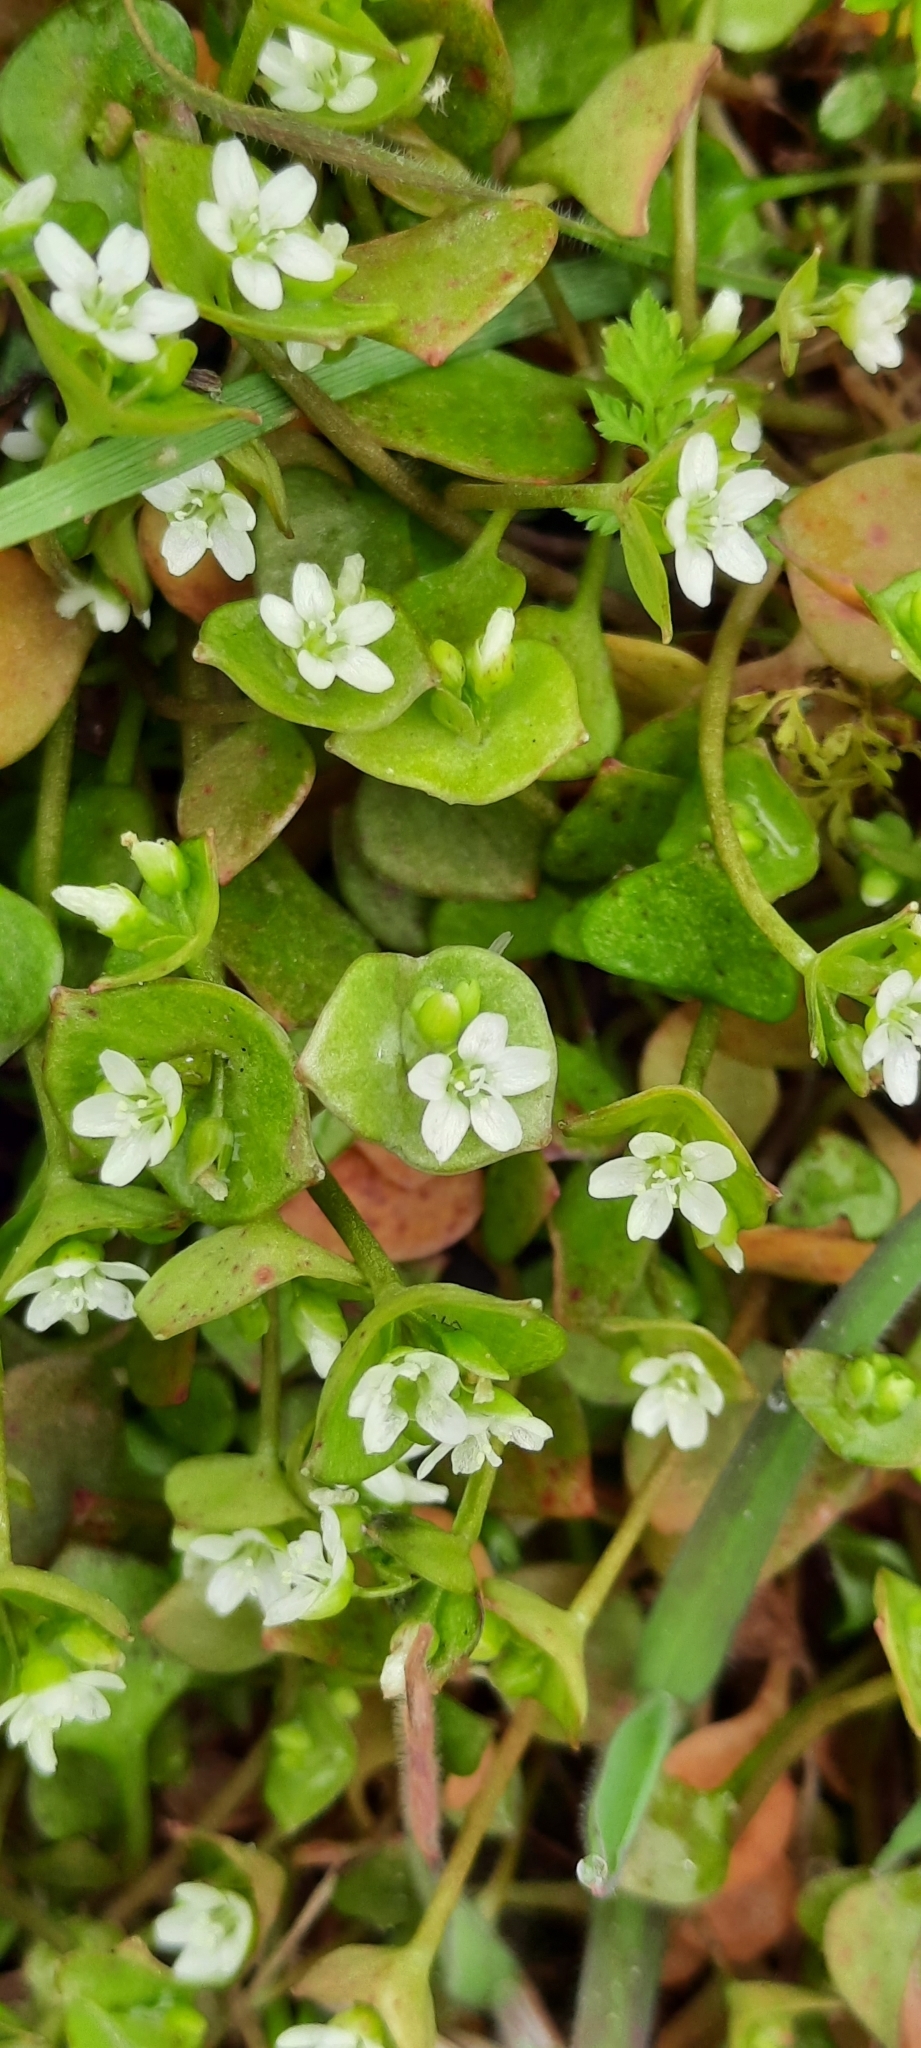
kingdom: Plantae
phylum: Tracheophyta
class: Magnoliopsida
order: Caryophyllales
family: Montiaceae
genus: Claytonia
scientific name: Claytonia perfoliata
